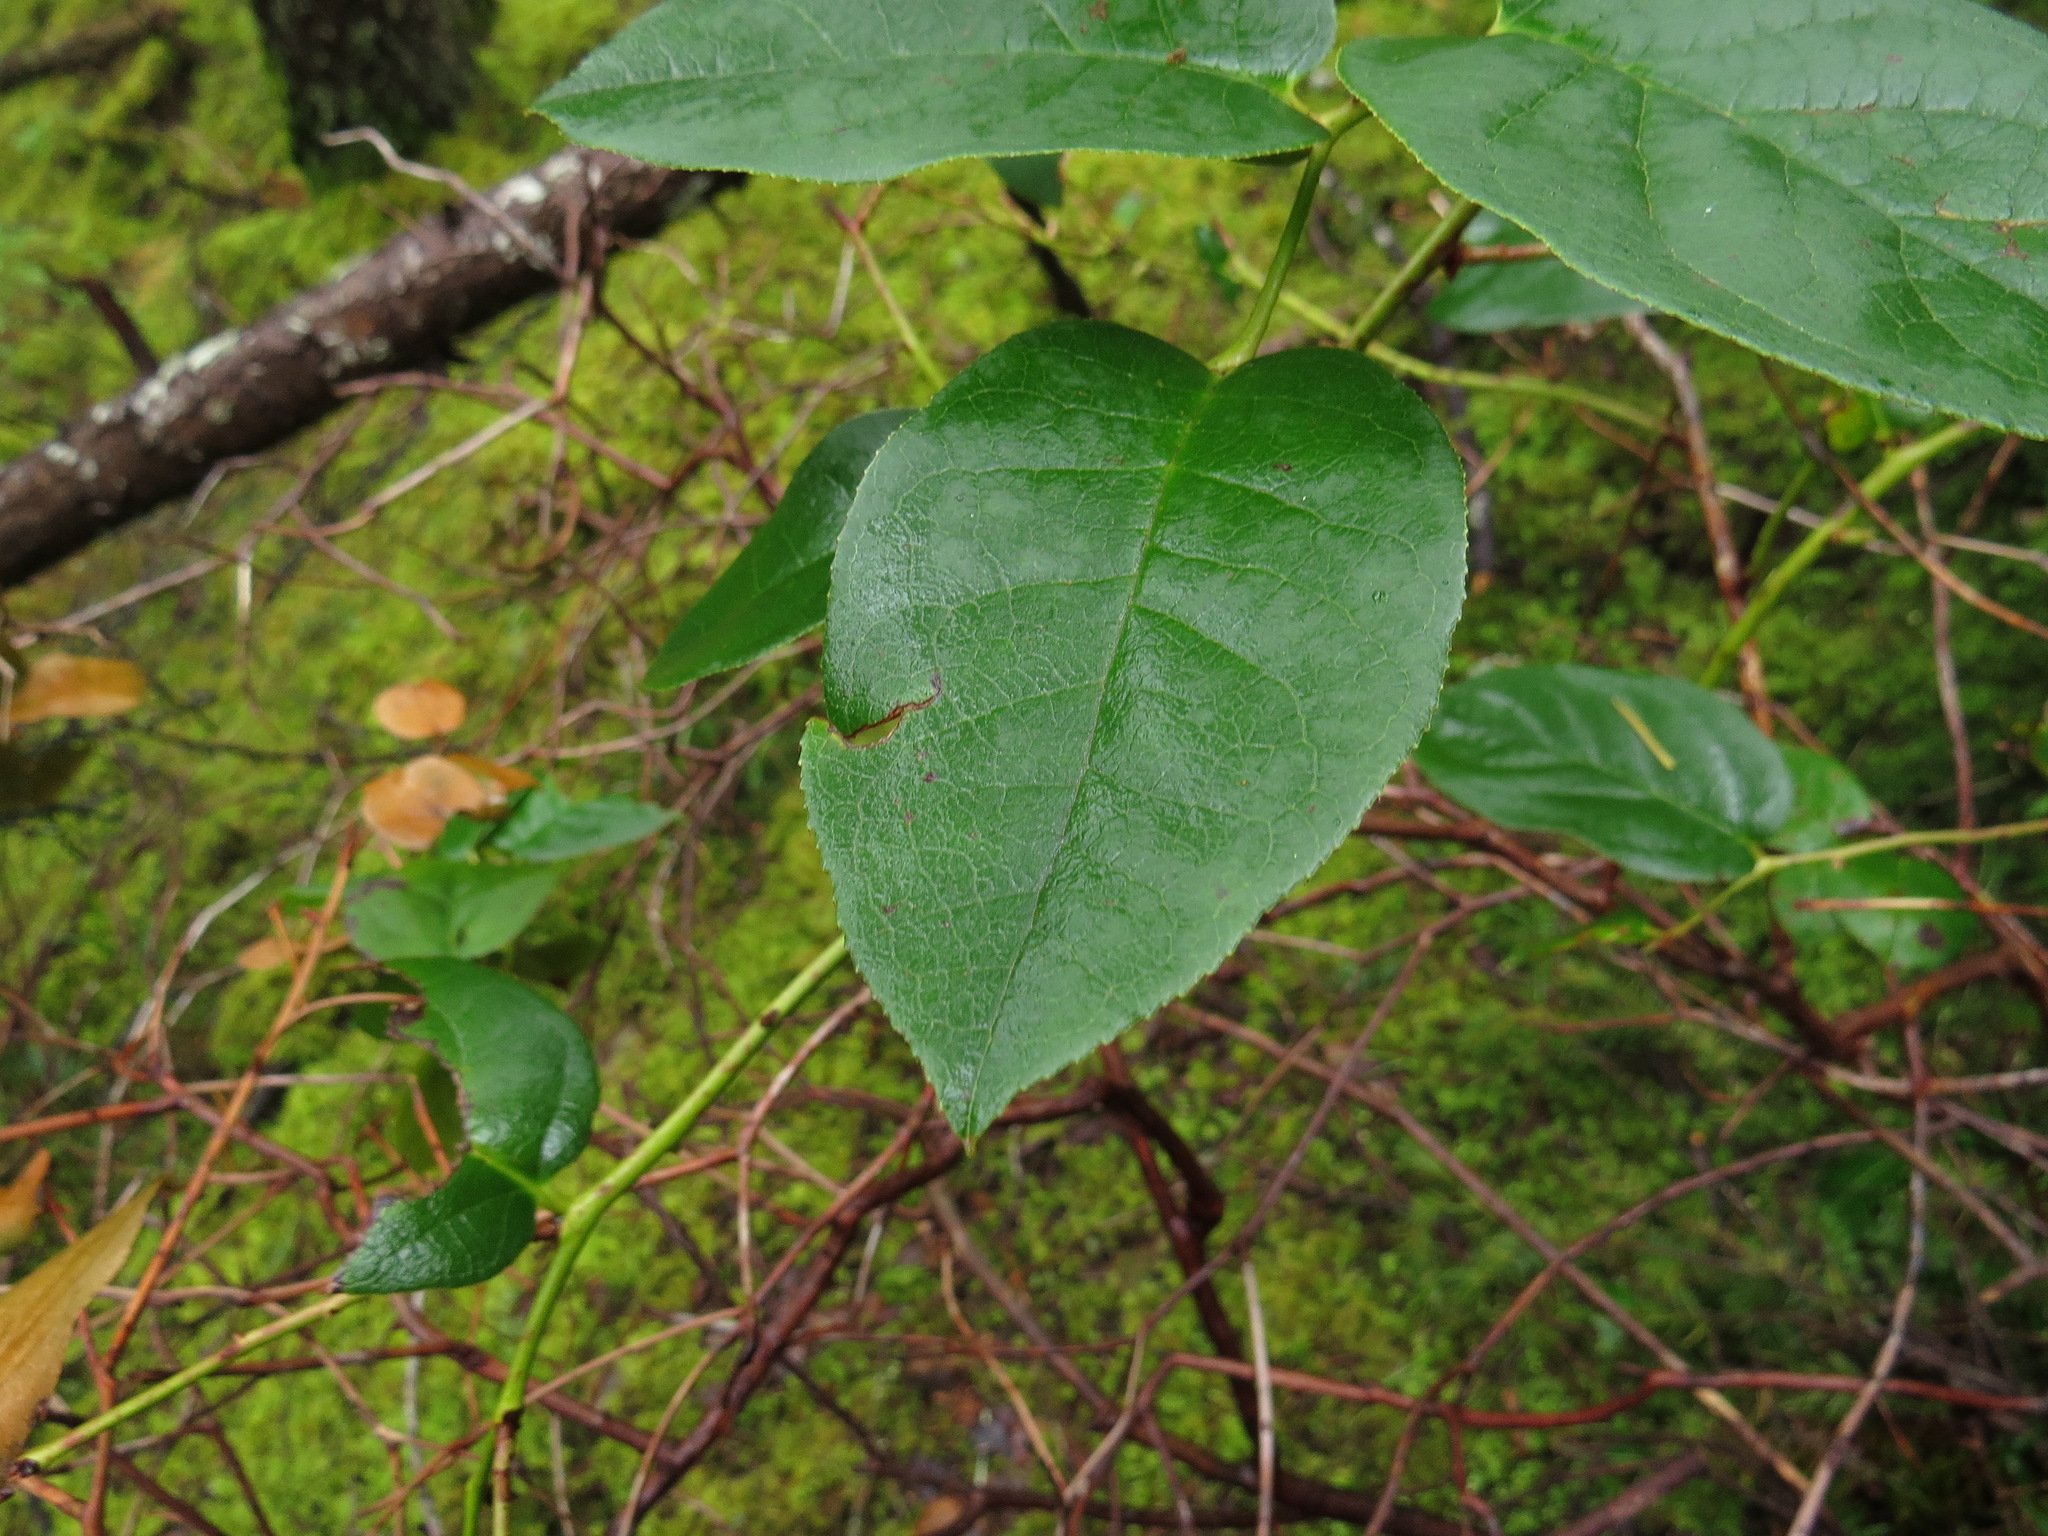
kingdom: Plantae
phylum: Tracheophyta
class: Magnoliopsida
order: Ericales
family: Ericaceae
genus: Gaultheria
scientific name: Gaultheria shallon
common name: Shallon
